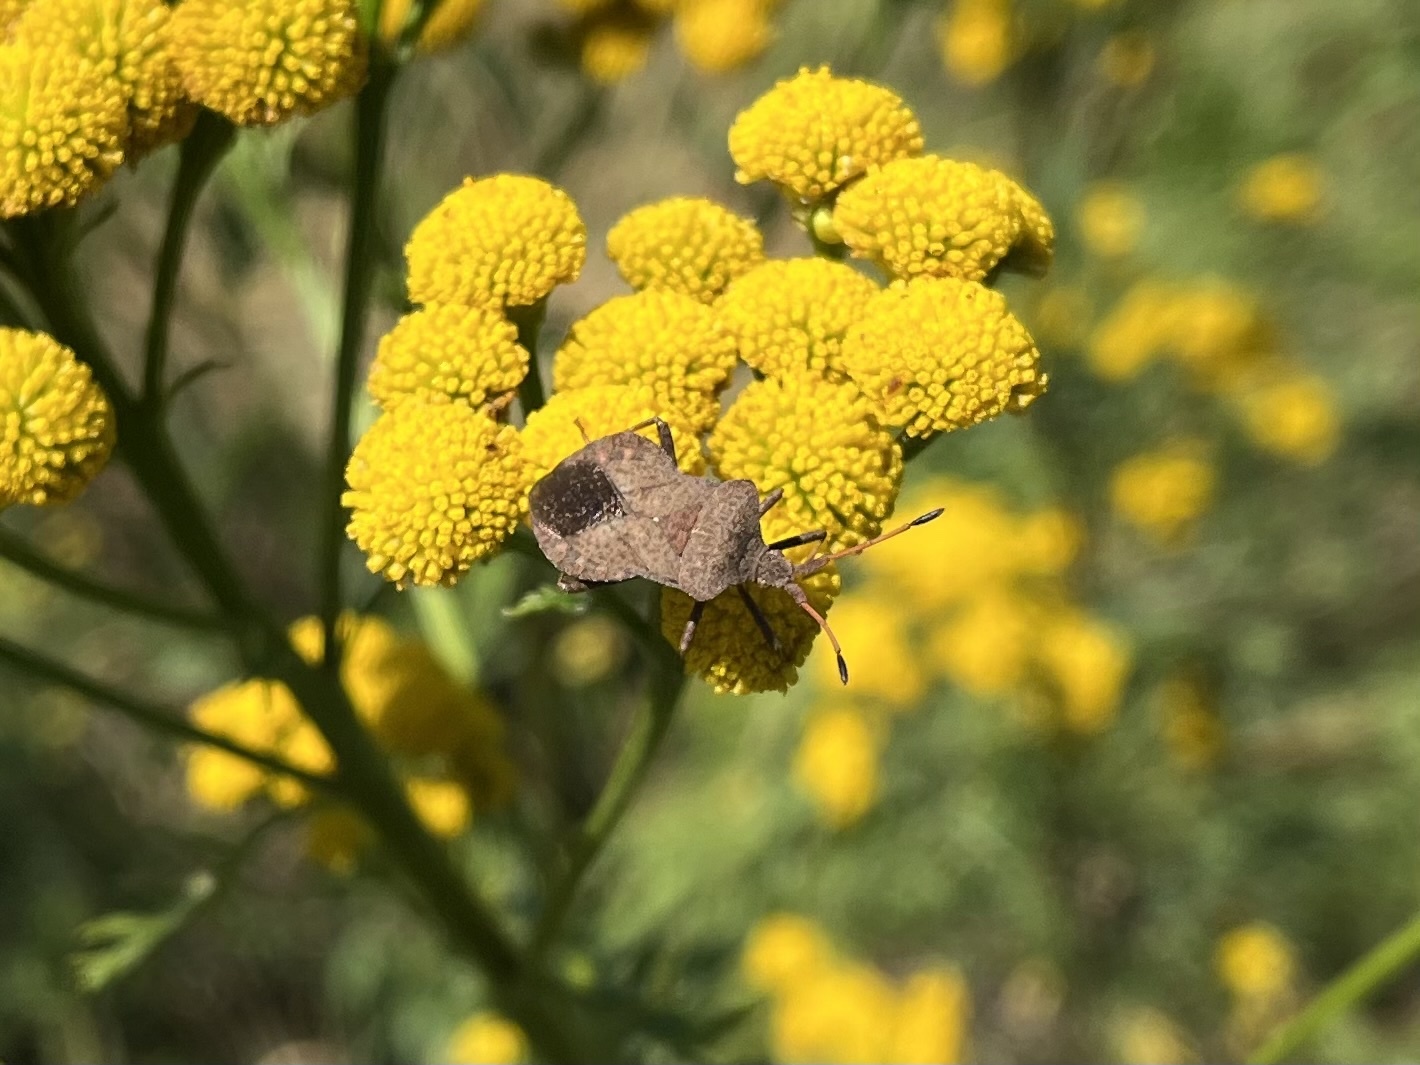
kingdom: Animalia
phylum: Arthropoda
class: Insecta
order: Hemiptera
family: Coreidae
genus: Coreus
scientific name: Coreus marginatus
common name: Dock bug
